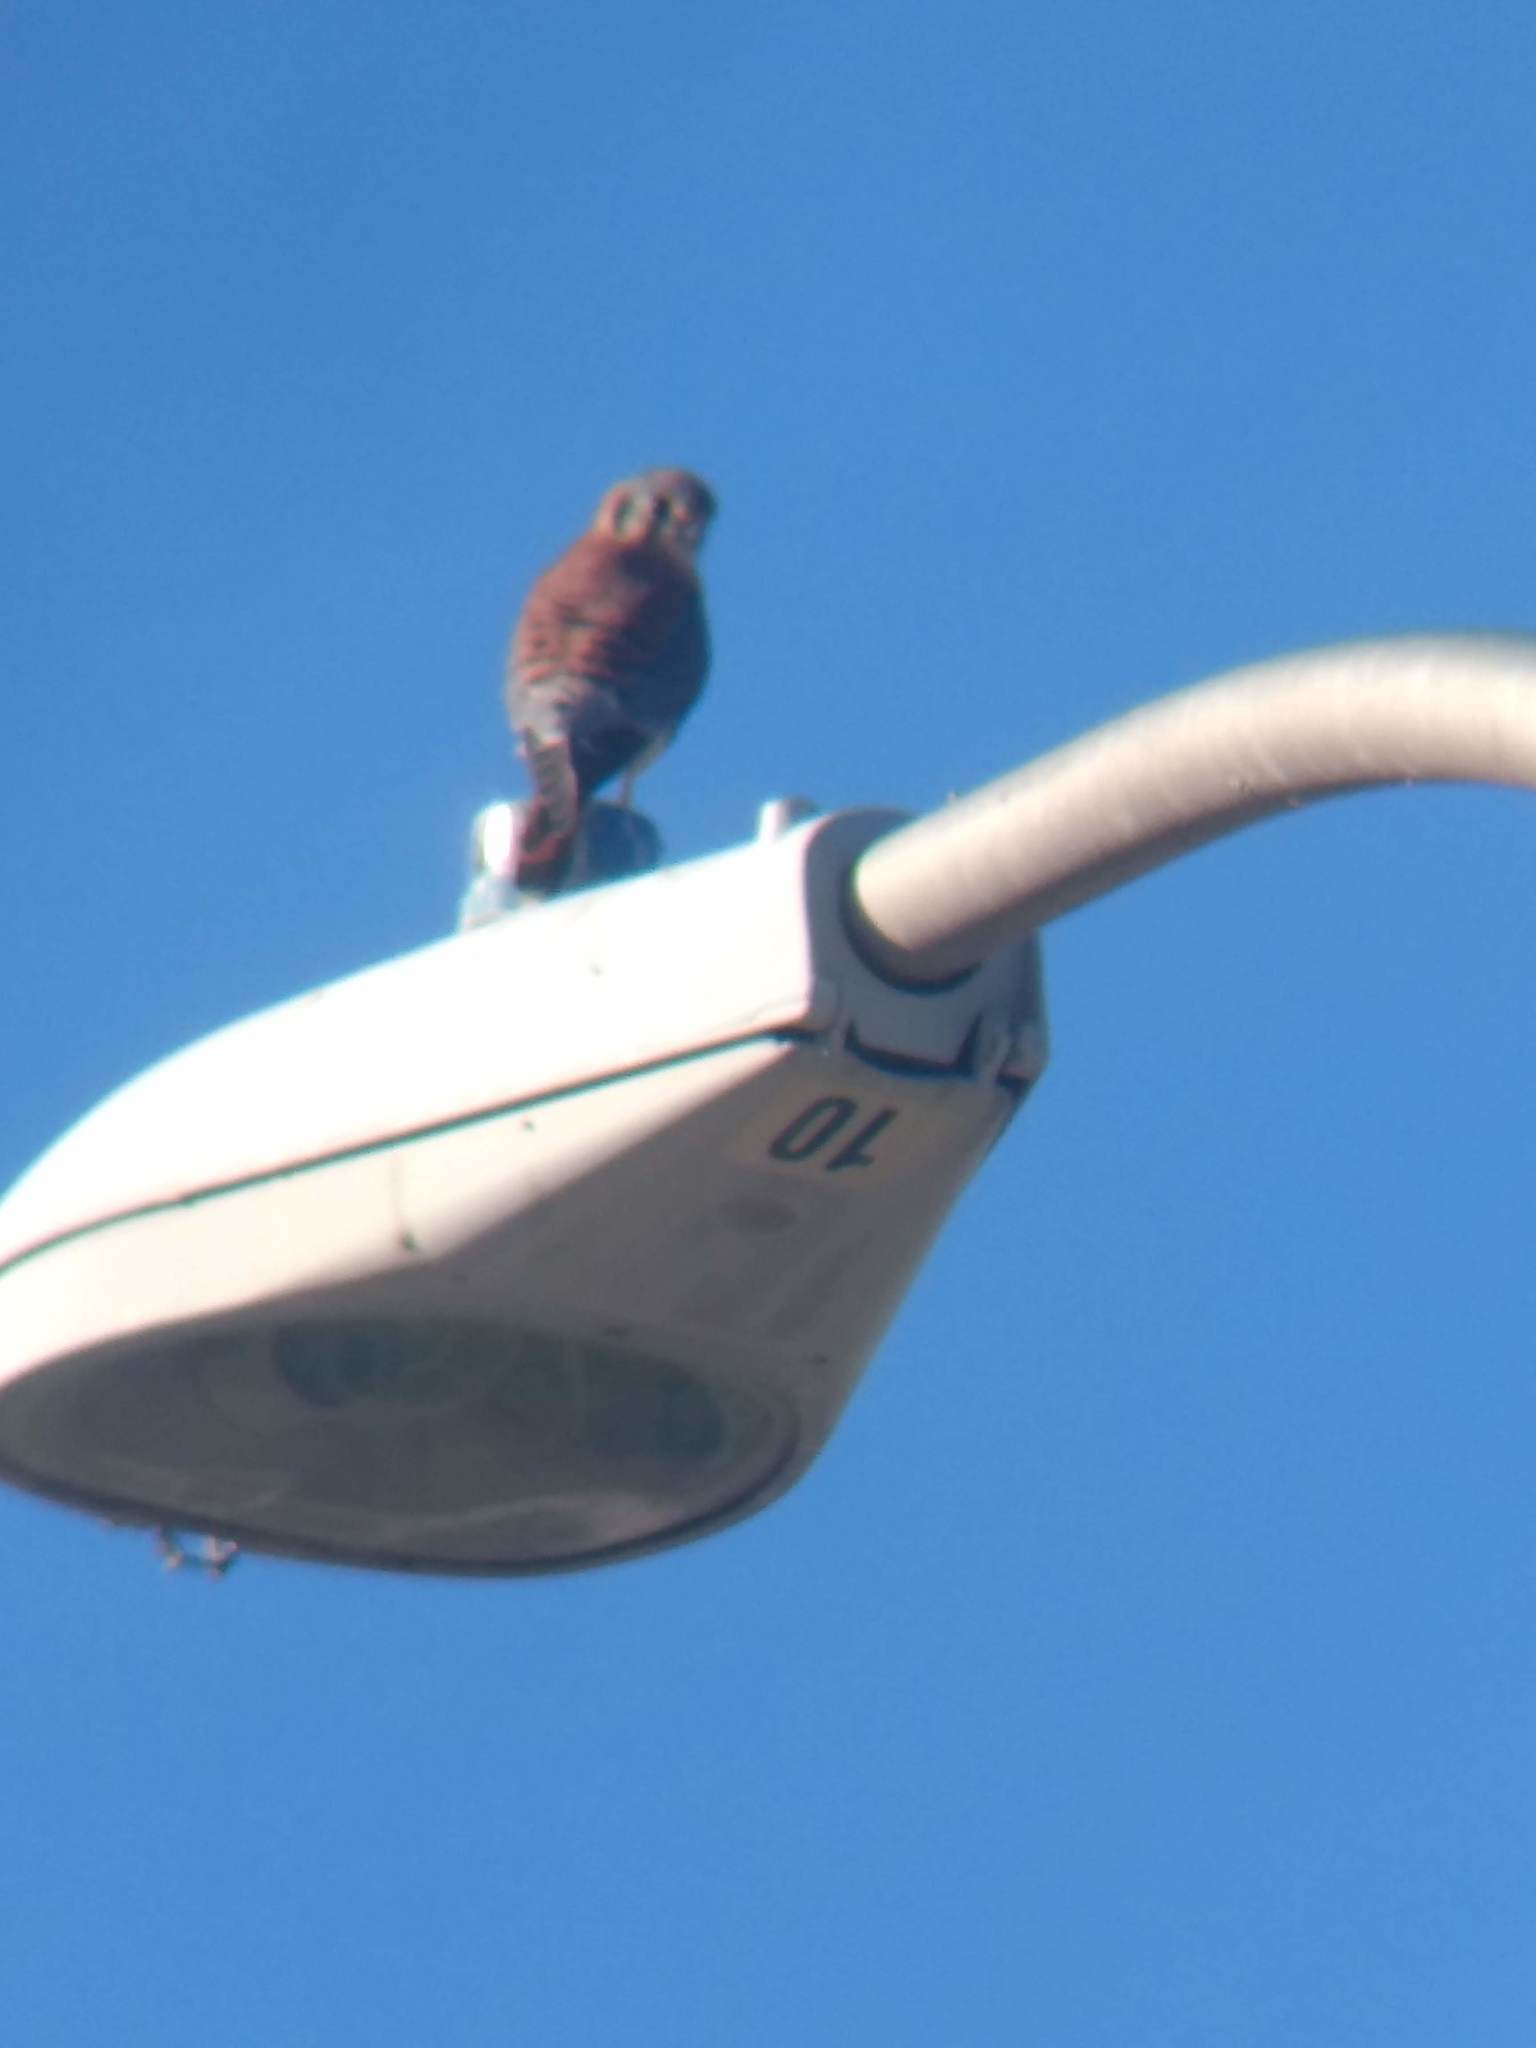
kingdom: Animalia
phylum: Chordata
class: Aves
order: Falconiformes
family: Falconidae
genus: Falco
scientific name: Falco sparverius
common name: American kestrel
